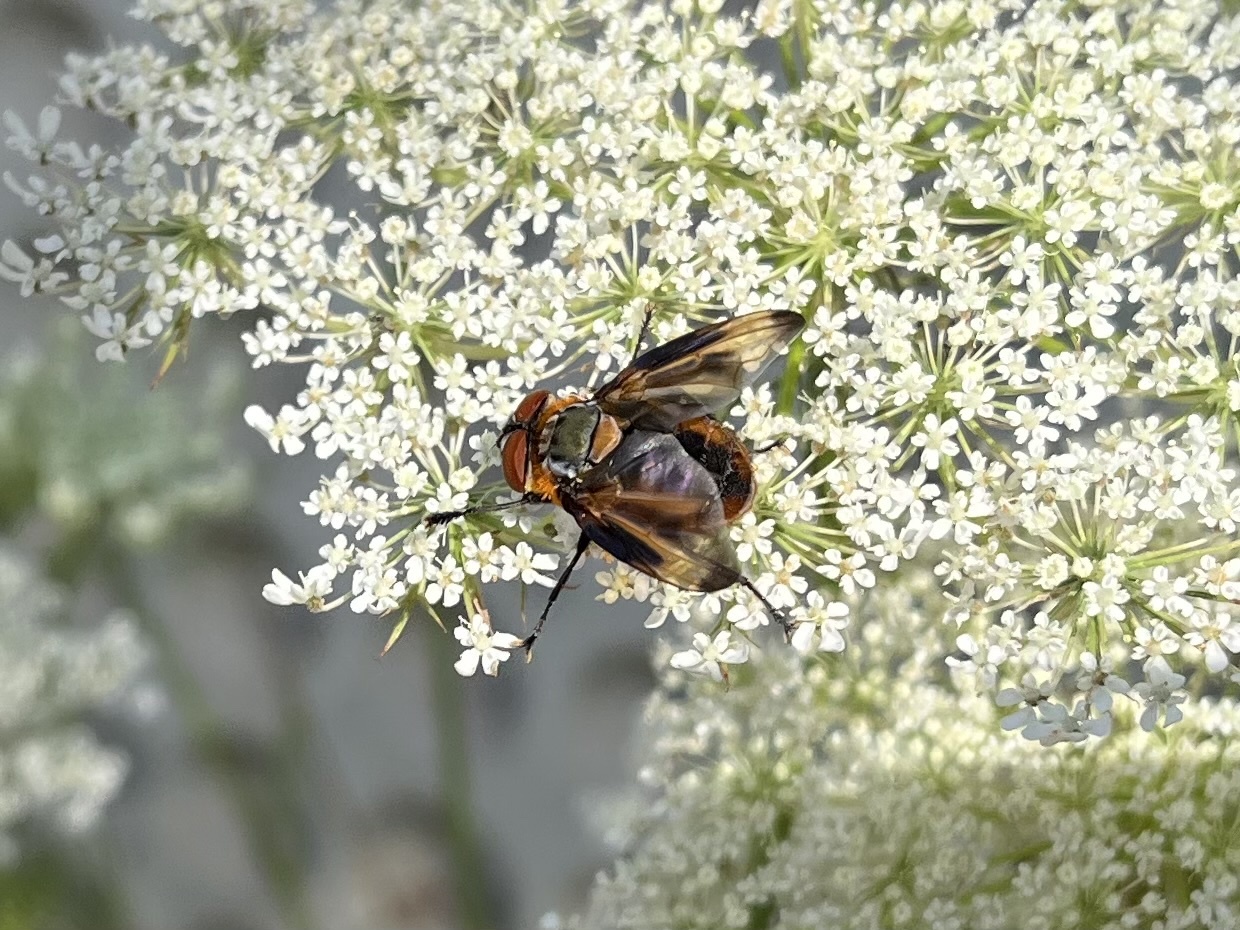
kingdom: Animalia
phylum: Arthropoda
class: Insecta
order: Diptera
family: Tachinidae
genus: Phasia
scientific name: Phasia hemiptera
